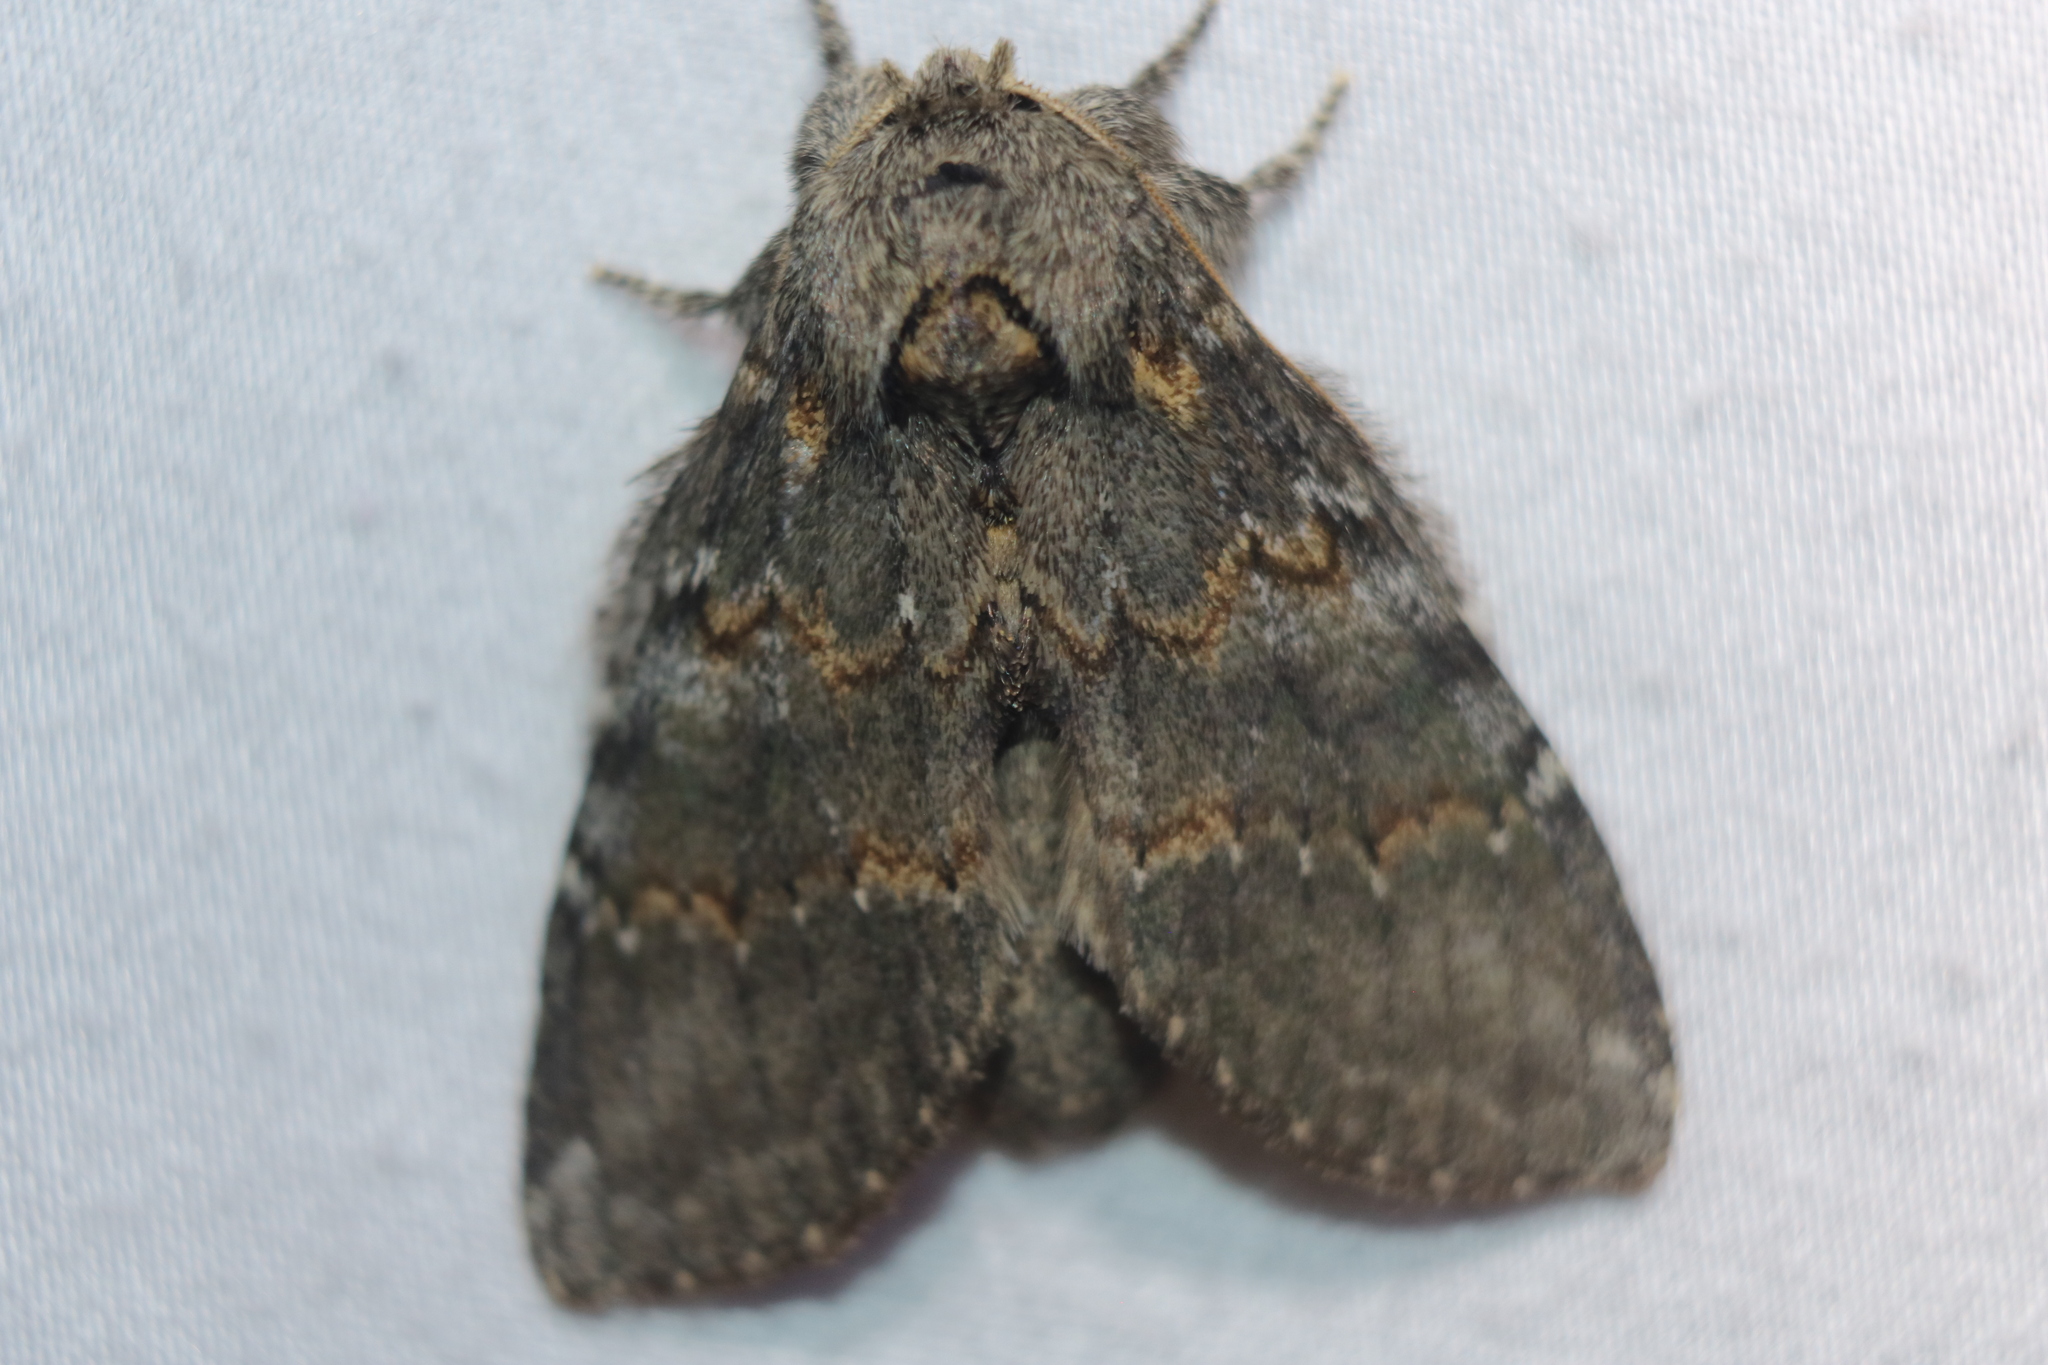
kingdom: Animalia
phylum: Arthropoda
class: Insecta
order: Lepidoptera
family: Notodontidae
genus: Peridea
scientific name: Peridea angulosa
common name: Angulose prominent
